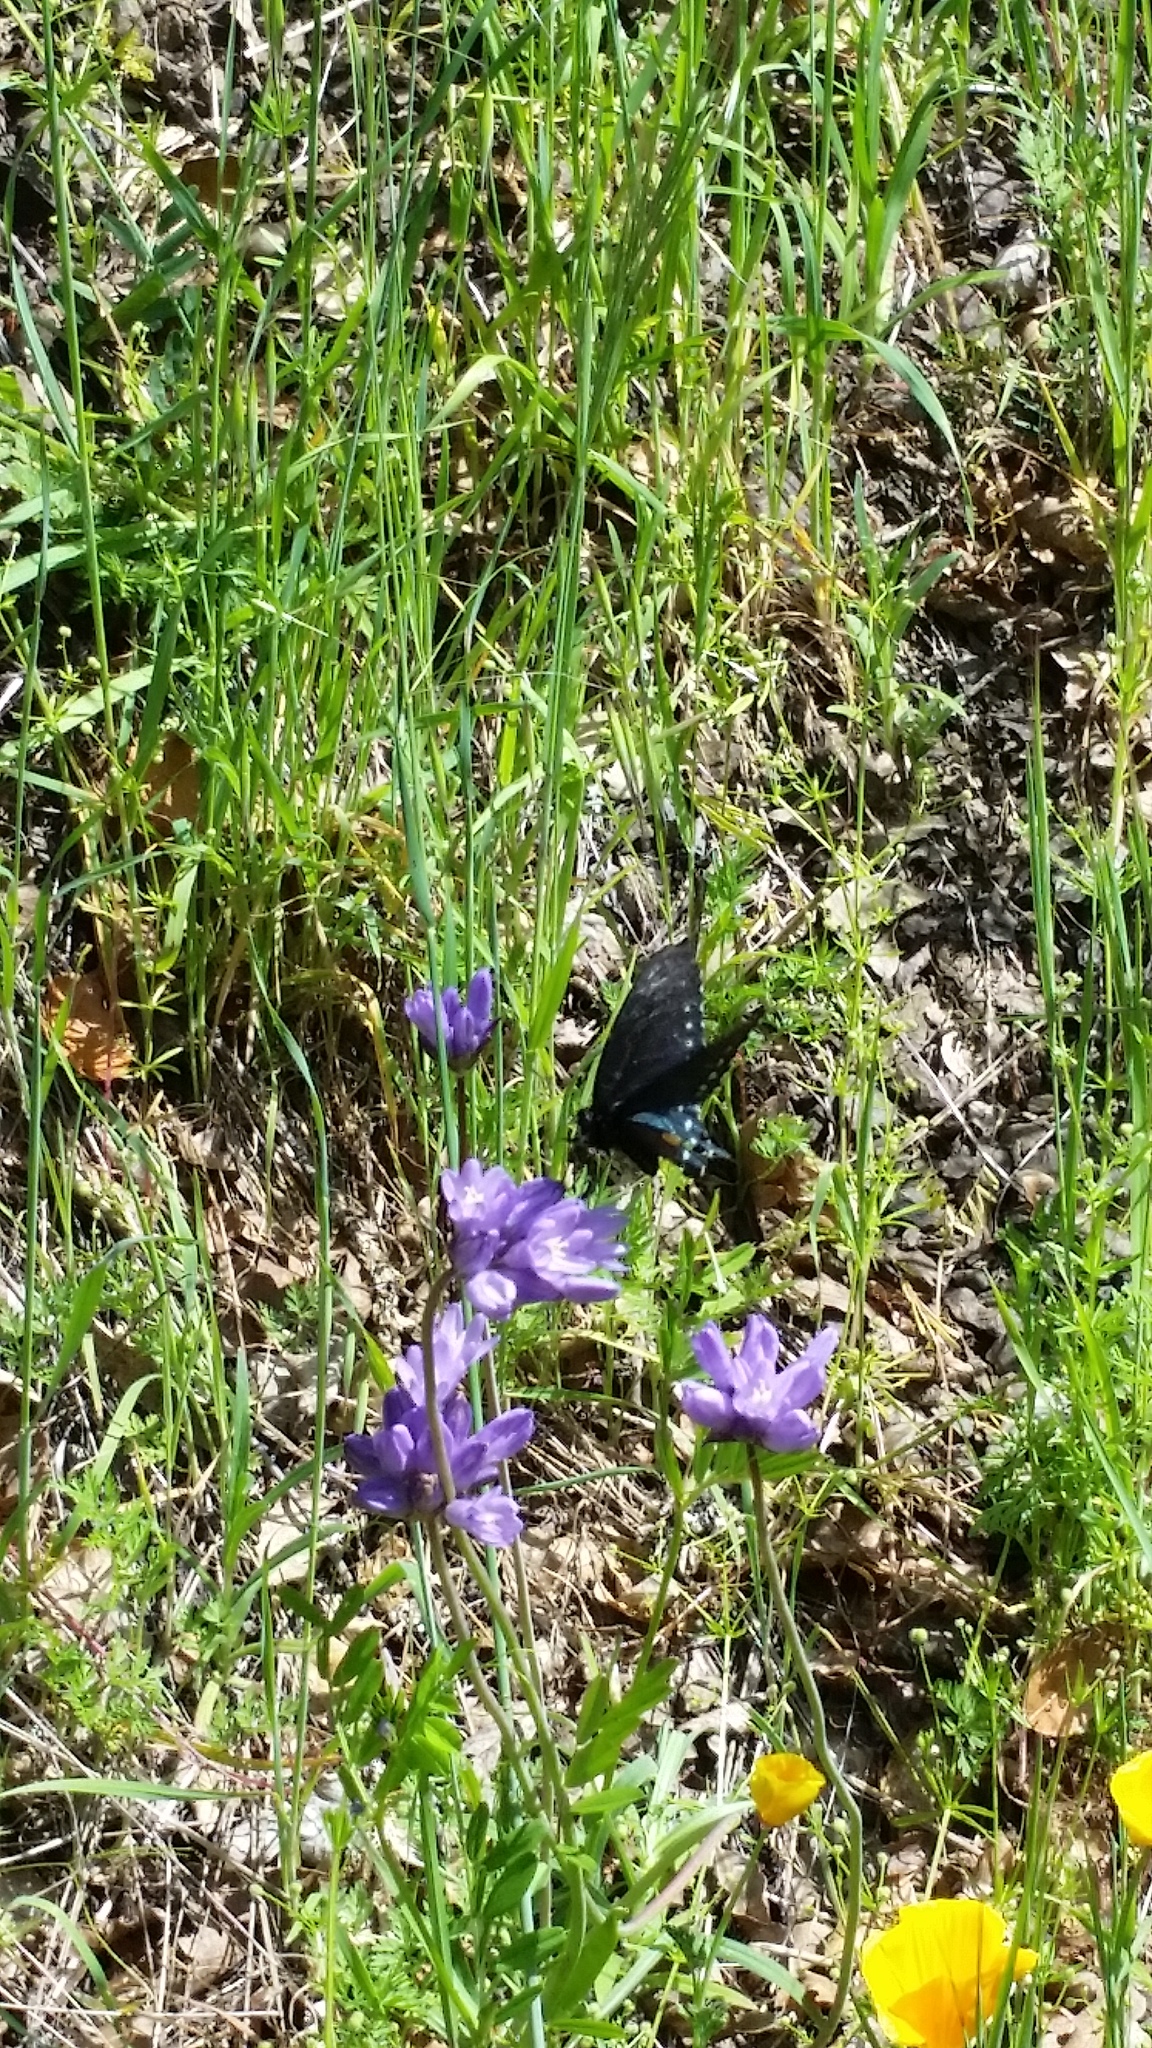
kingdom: Animalia
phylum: Arthropoda
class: Insecta
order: Lepidoptera
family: Papilionidae
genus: Battus
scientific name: Battus philenor
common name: Pipevine swallowtail
